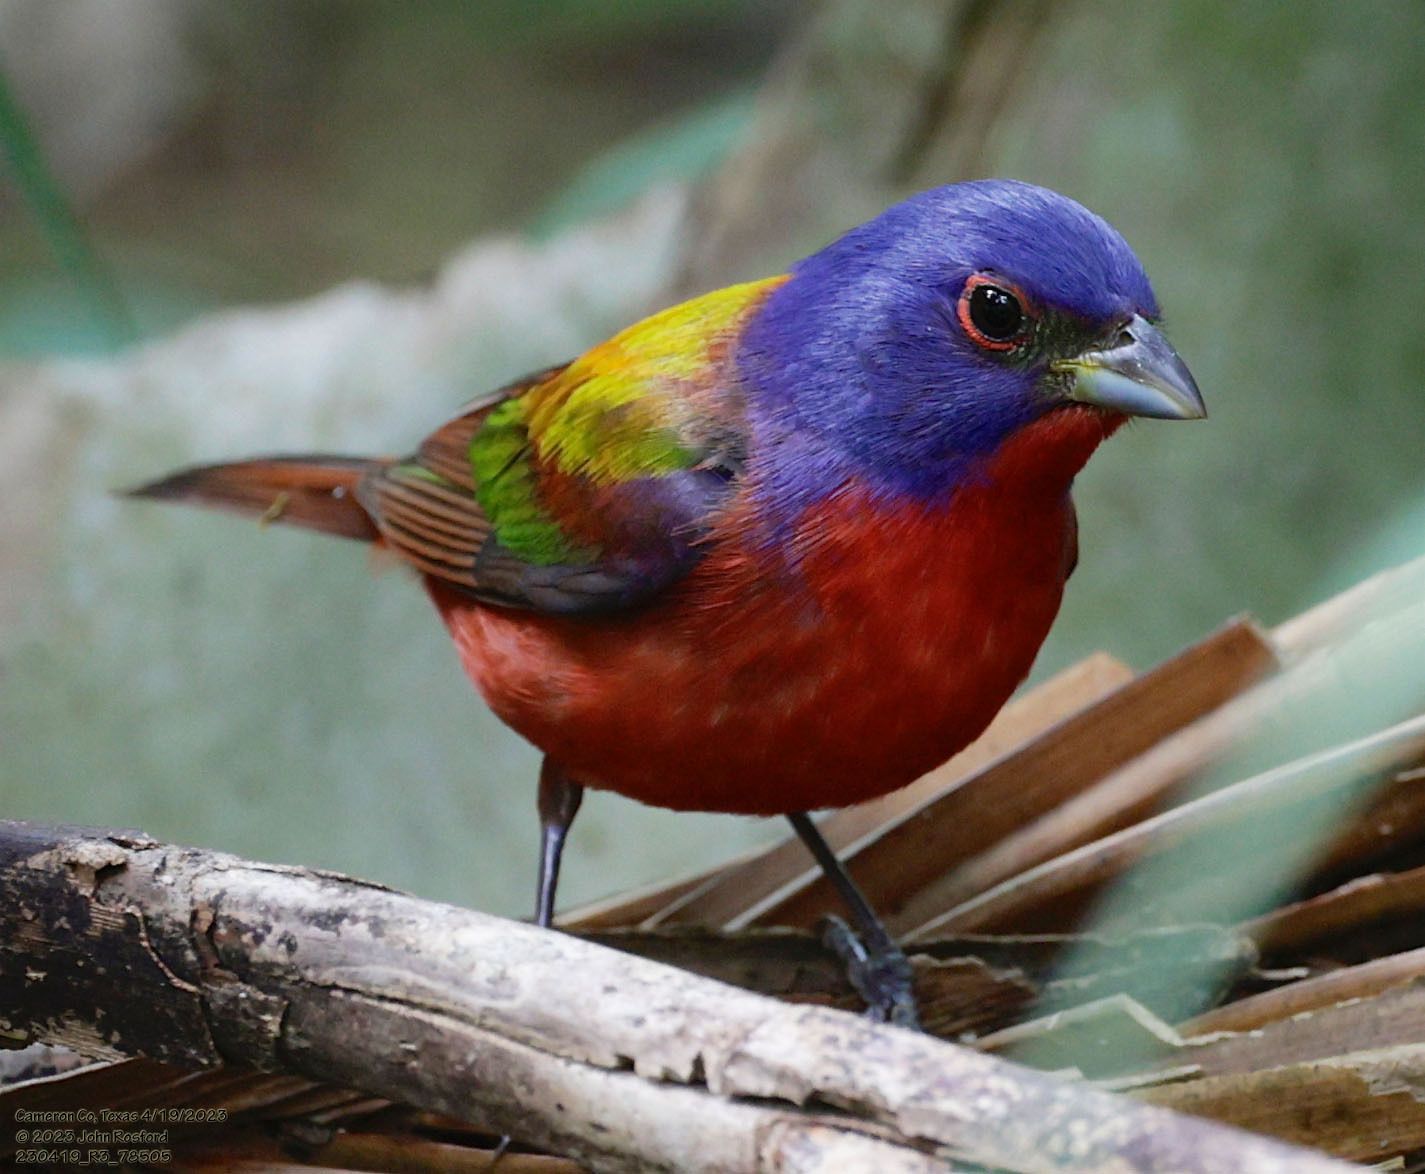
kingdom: Animalia
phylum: Chordata
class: Aves
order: Passeriformes
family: Cardinalidae
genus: Passerina
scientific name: Passerina ciris
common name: Painted bunting
